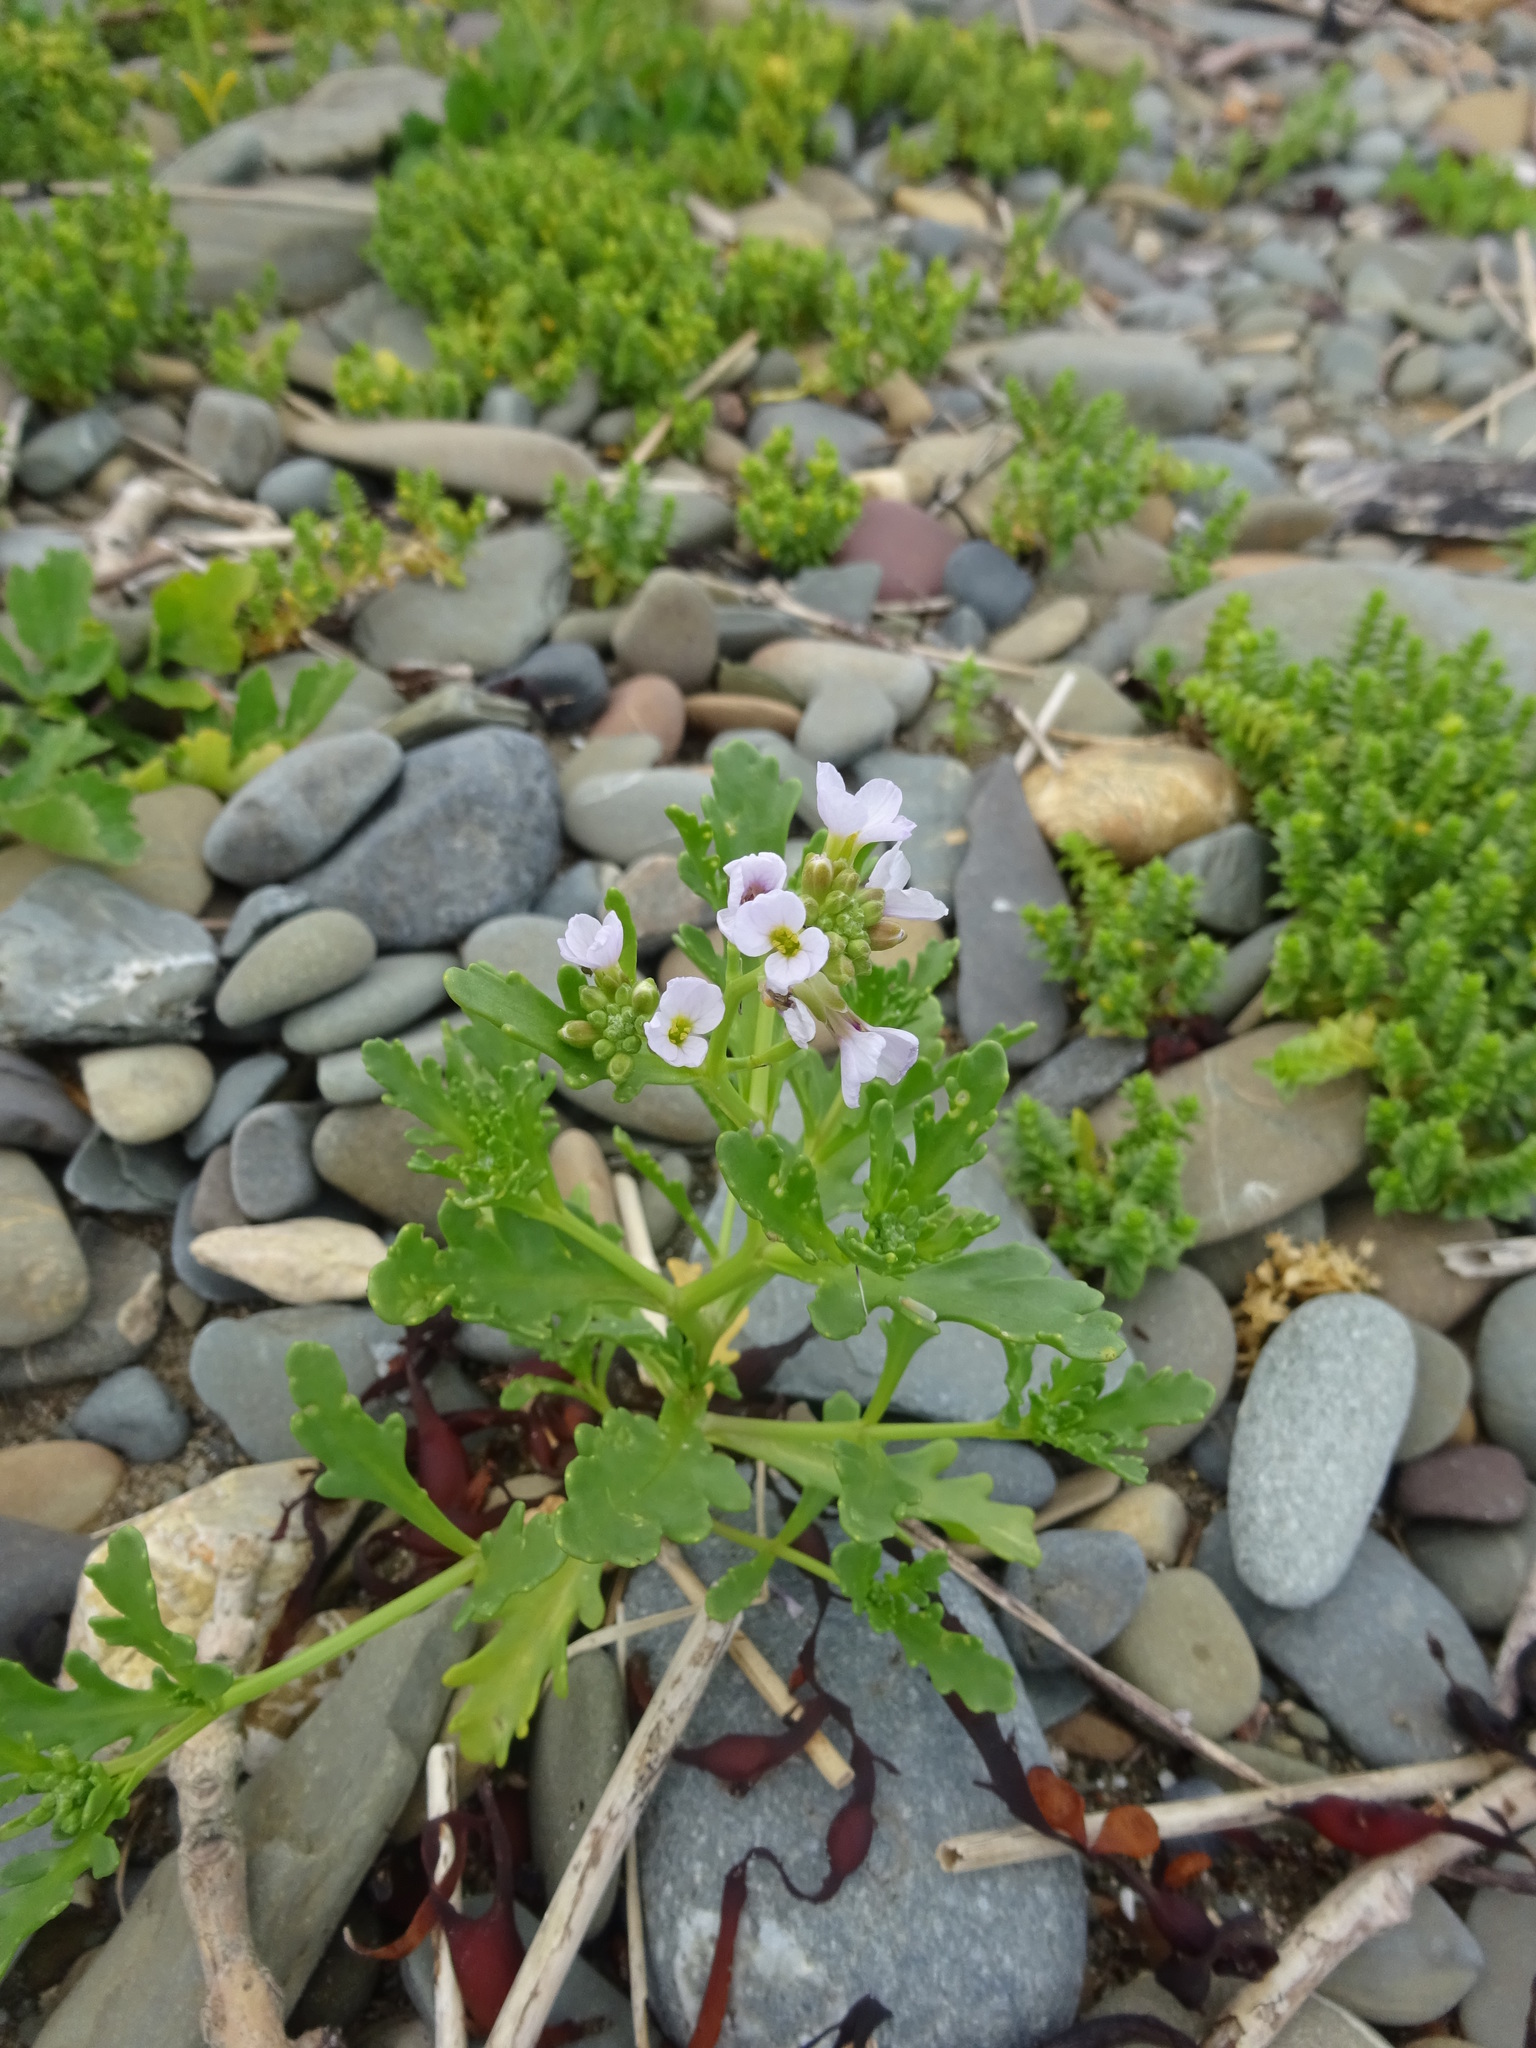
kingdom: Plantae
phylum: Tracheophyta
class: Magnoliopsida
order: Brassicales
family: Brassicaceae
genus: Cakile
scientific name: Cakile maritima
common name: Sea rocket
